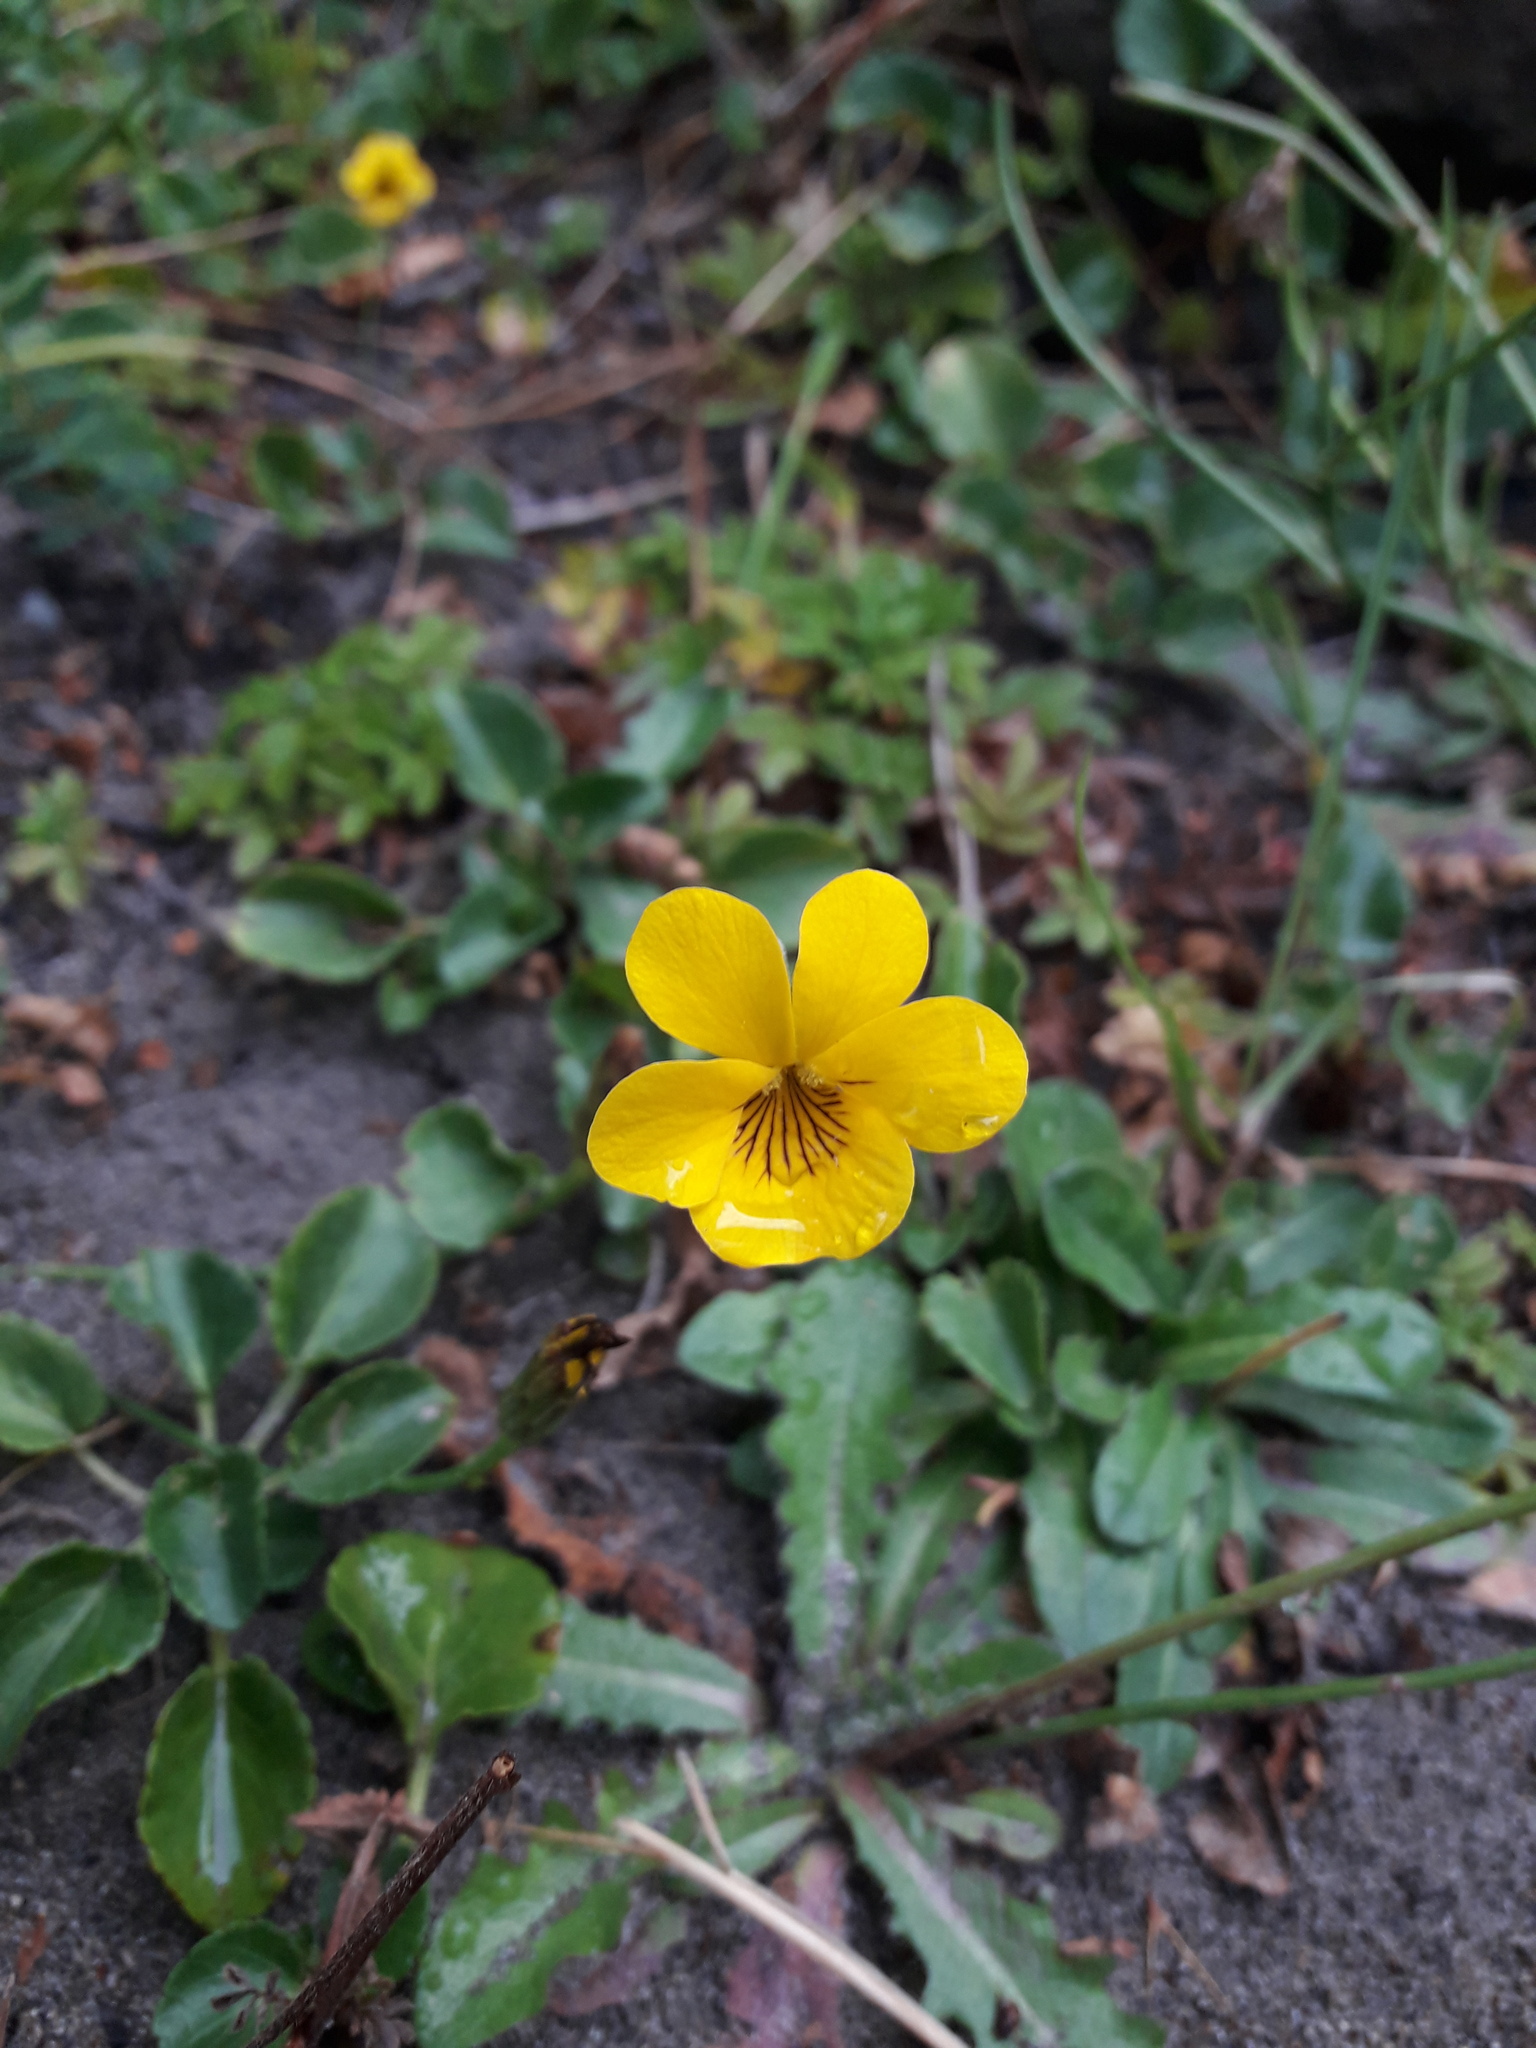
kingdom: Plantae
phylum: Tracheophyta
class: Magnoliopsida
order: Malpighiales
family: Violaceae
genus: Viola
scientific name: Viola reichei
